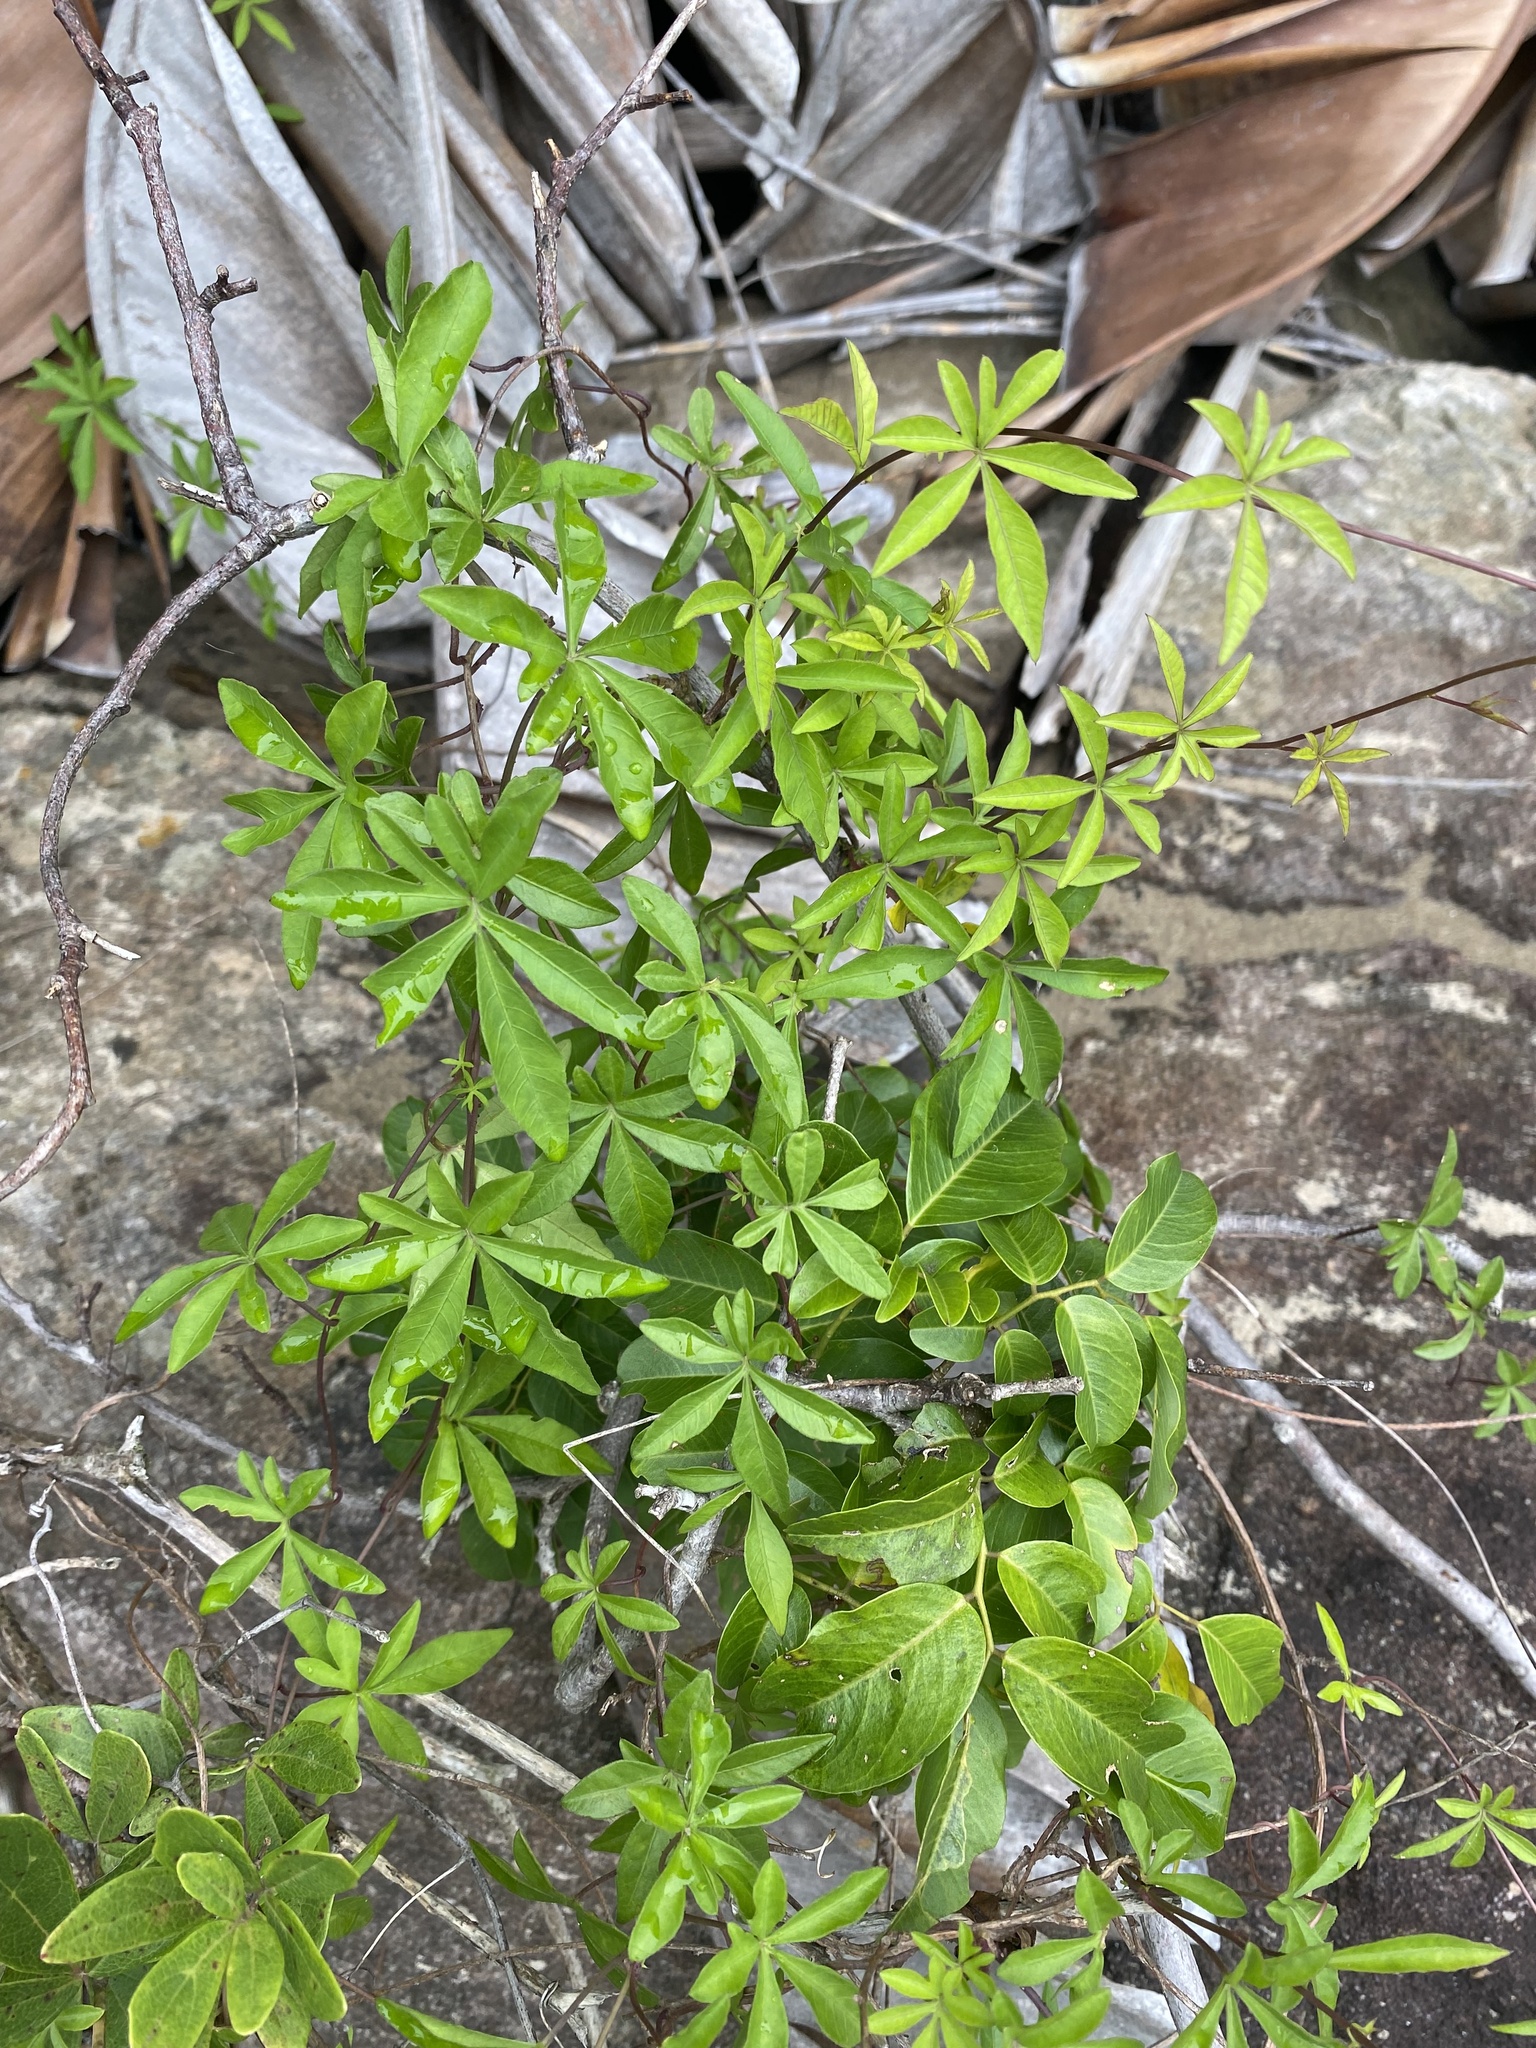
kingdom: Plantae
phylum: Tracheophyta
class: Magnoliopsida
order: Solanales
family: Convolvulaceae
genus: Ipomoea
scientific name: Ipomoea cairica
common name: Mile a minute vine
